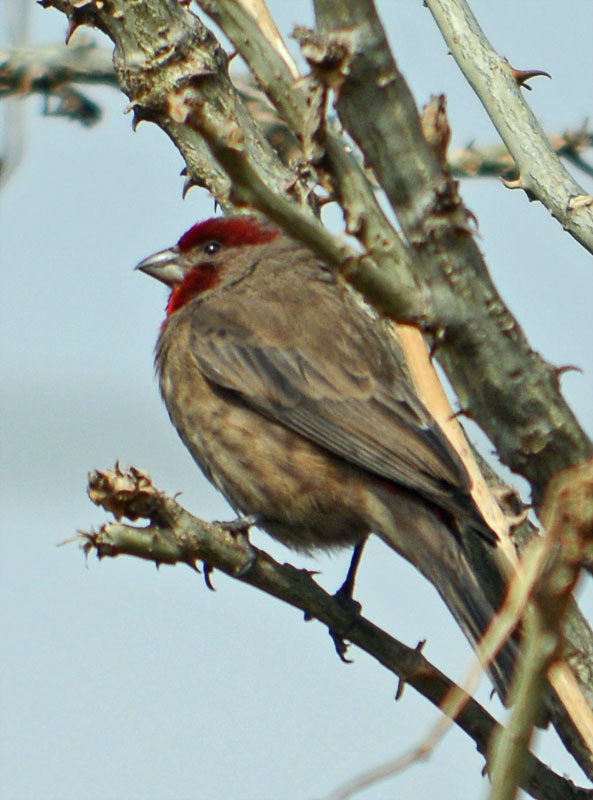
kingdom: Animalia
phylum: Chordata
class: Aves
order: Passeriformes
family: Fringillidae
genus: Haemorhous
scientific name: Haemorhous mexicanus
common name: House finch
